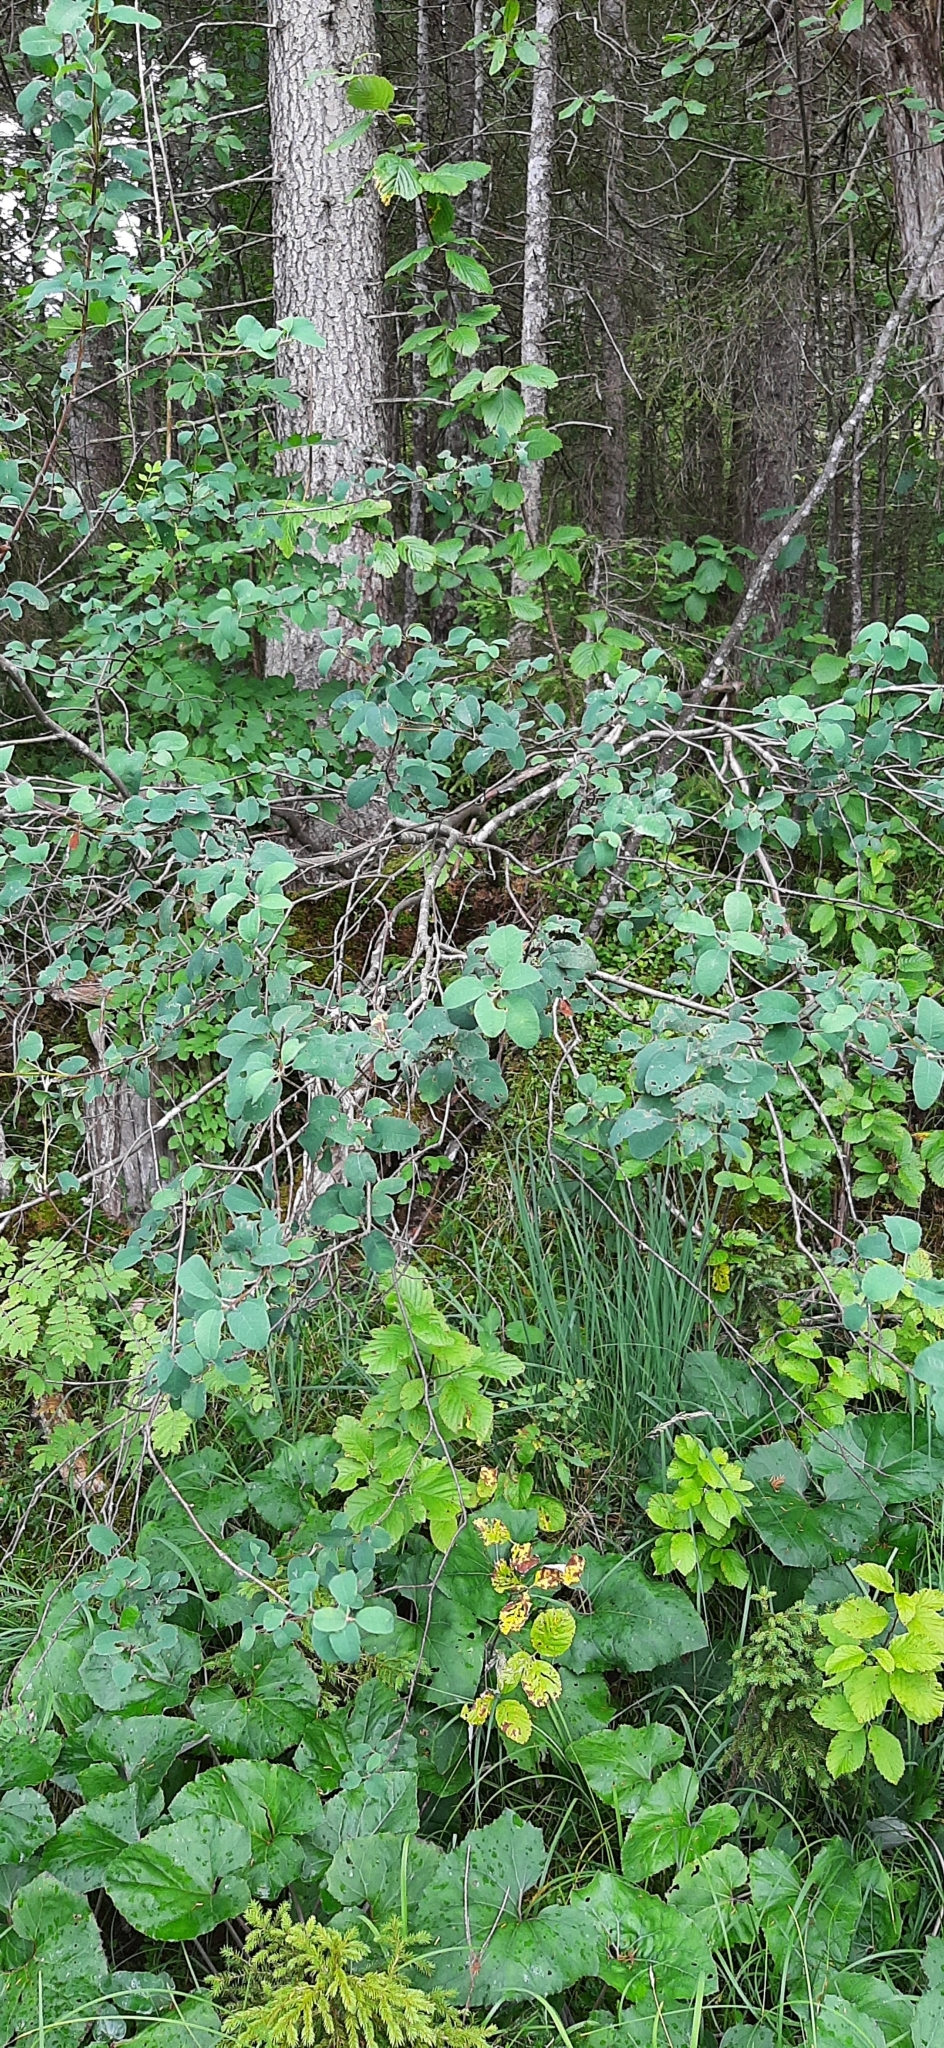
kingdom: Plantae
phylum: Tracheophyta
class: Magnoliopsida
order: Rosales
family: Rosaceae
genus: Amelanchier
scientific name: Amelanchier ovalis
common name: Serviceberry
